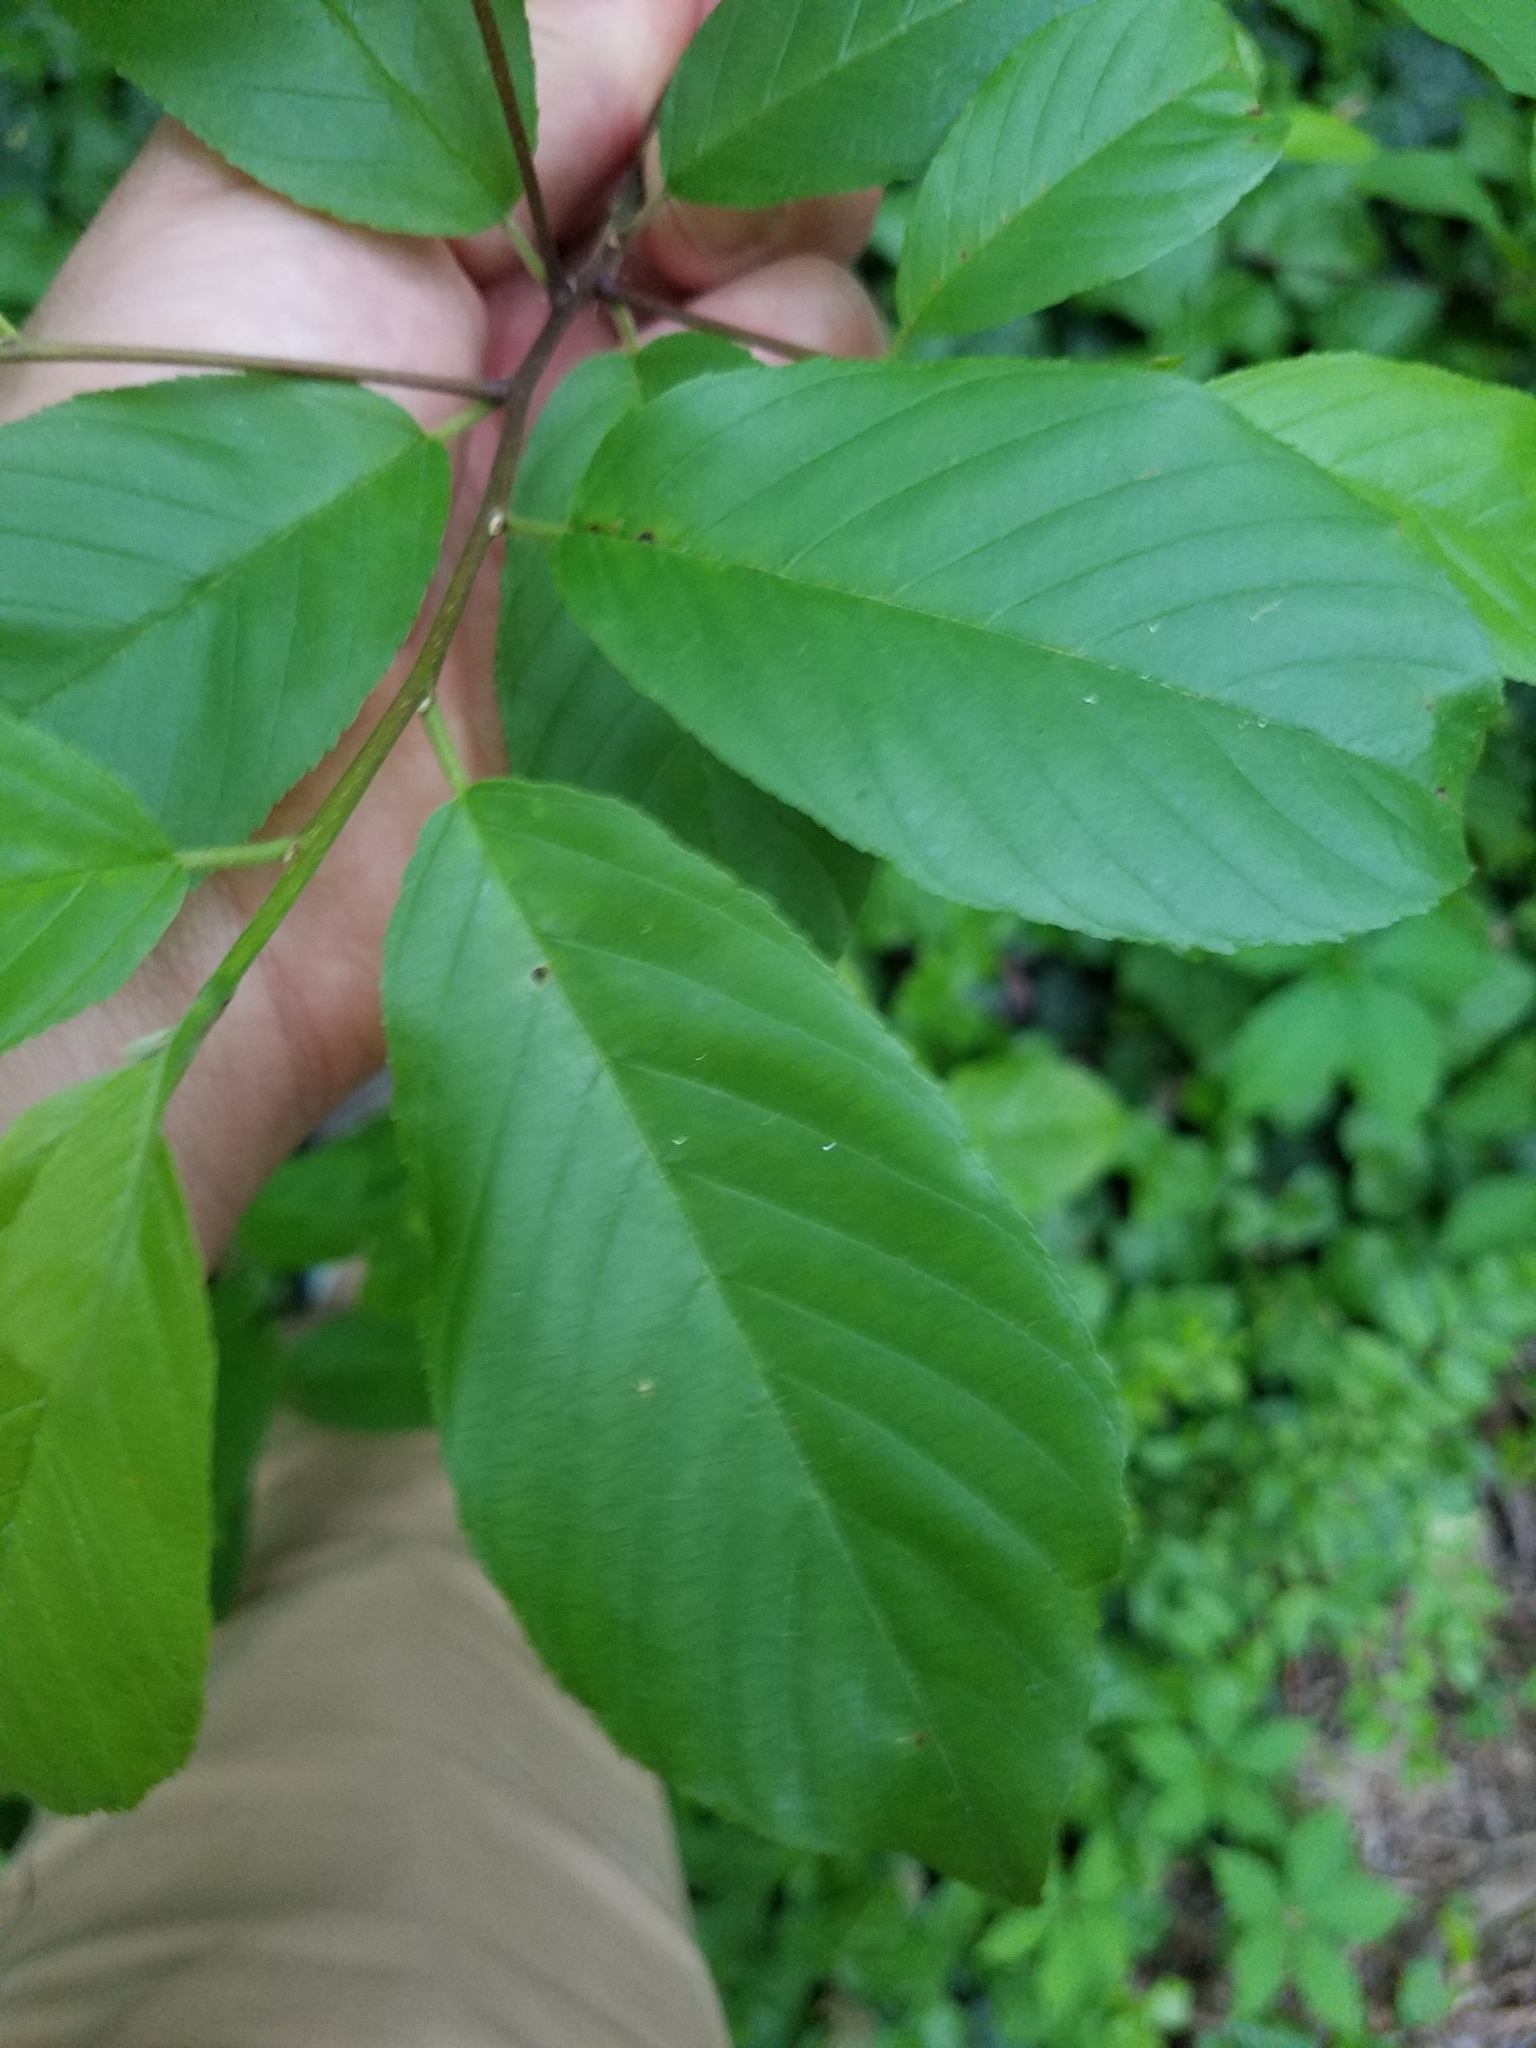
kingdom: Plantae
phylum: Tracheophyta
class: Magnoliopsida
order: Rosales
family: Rhamnaceae
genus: Frangula
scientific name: Frangula caroliniana
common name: Carolina buckthorn
